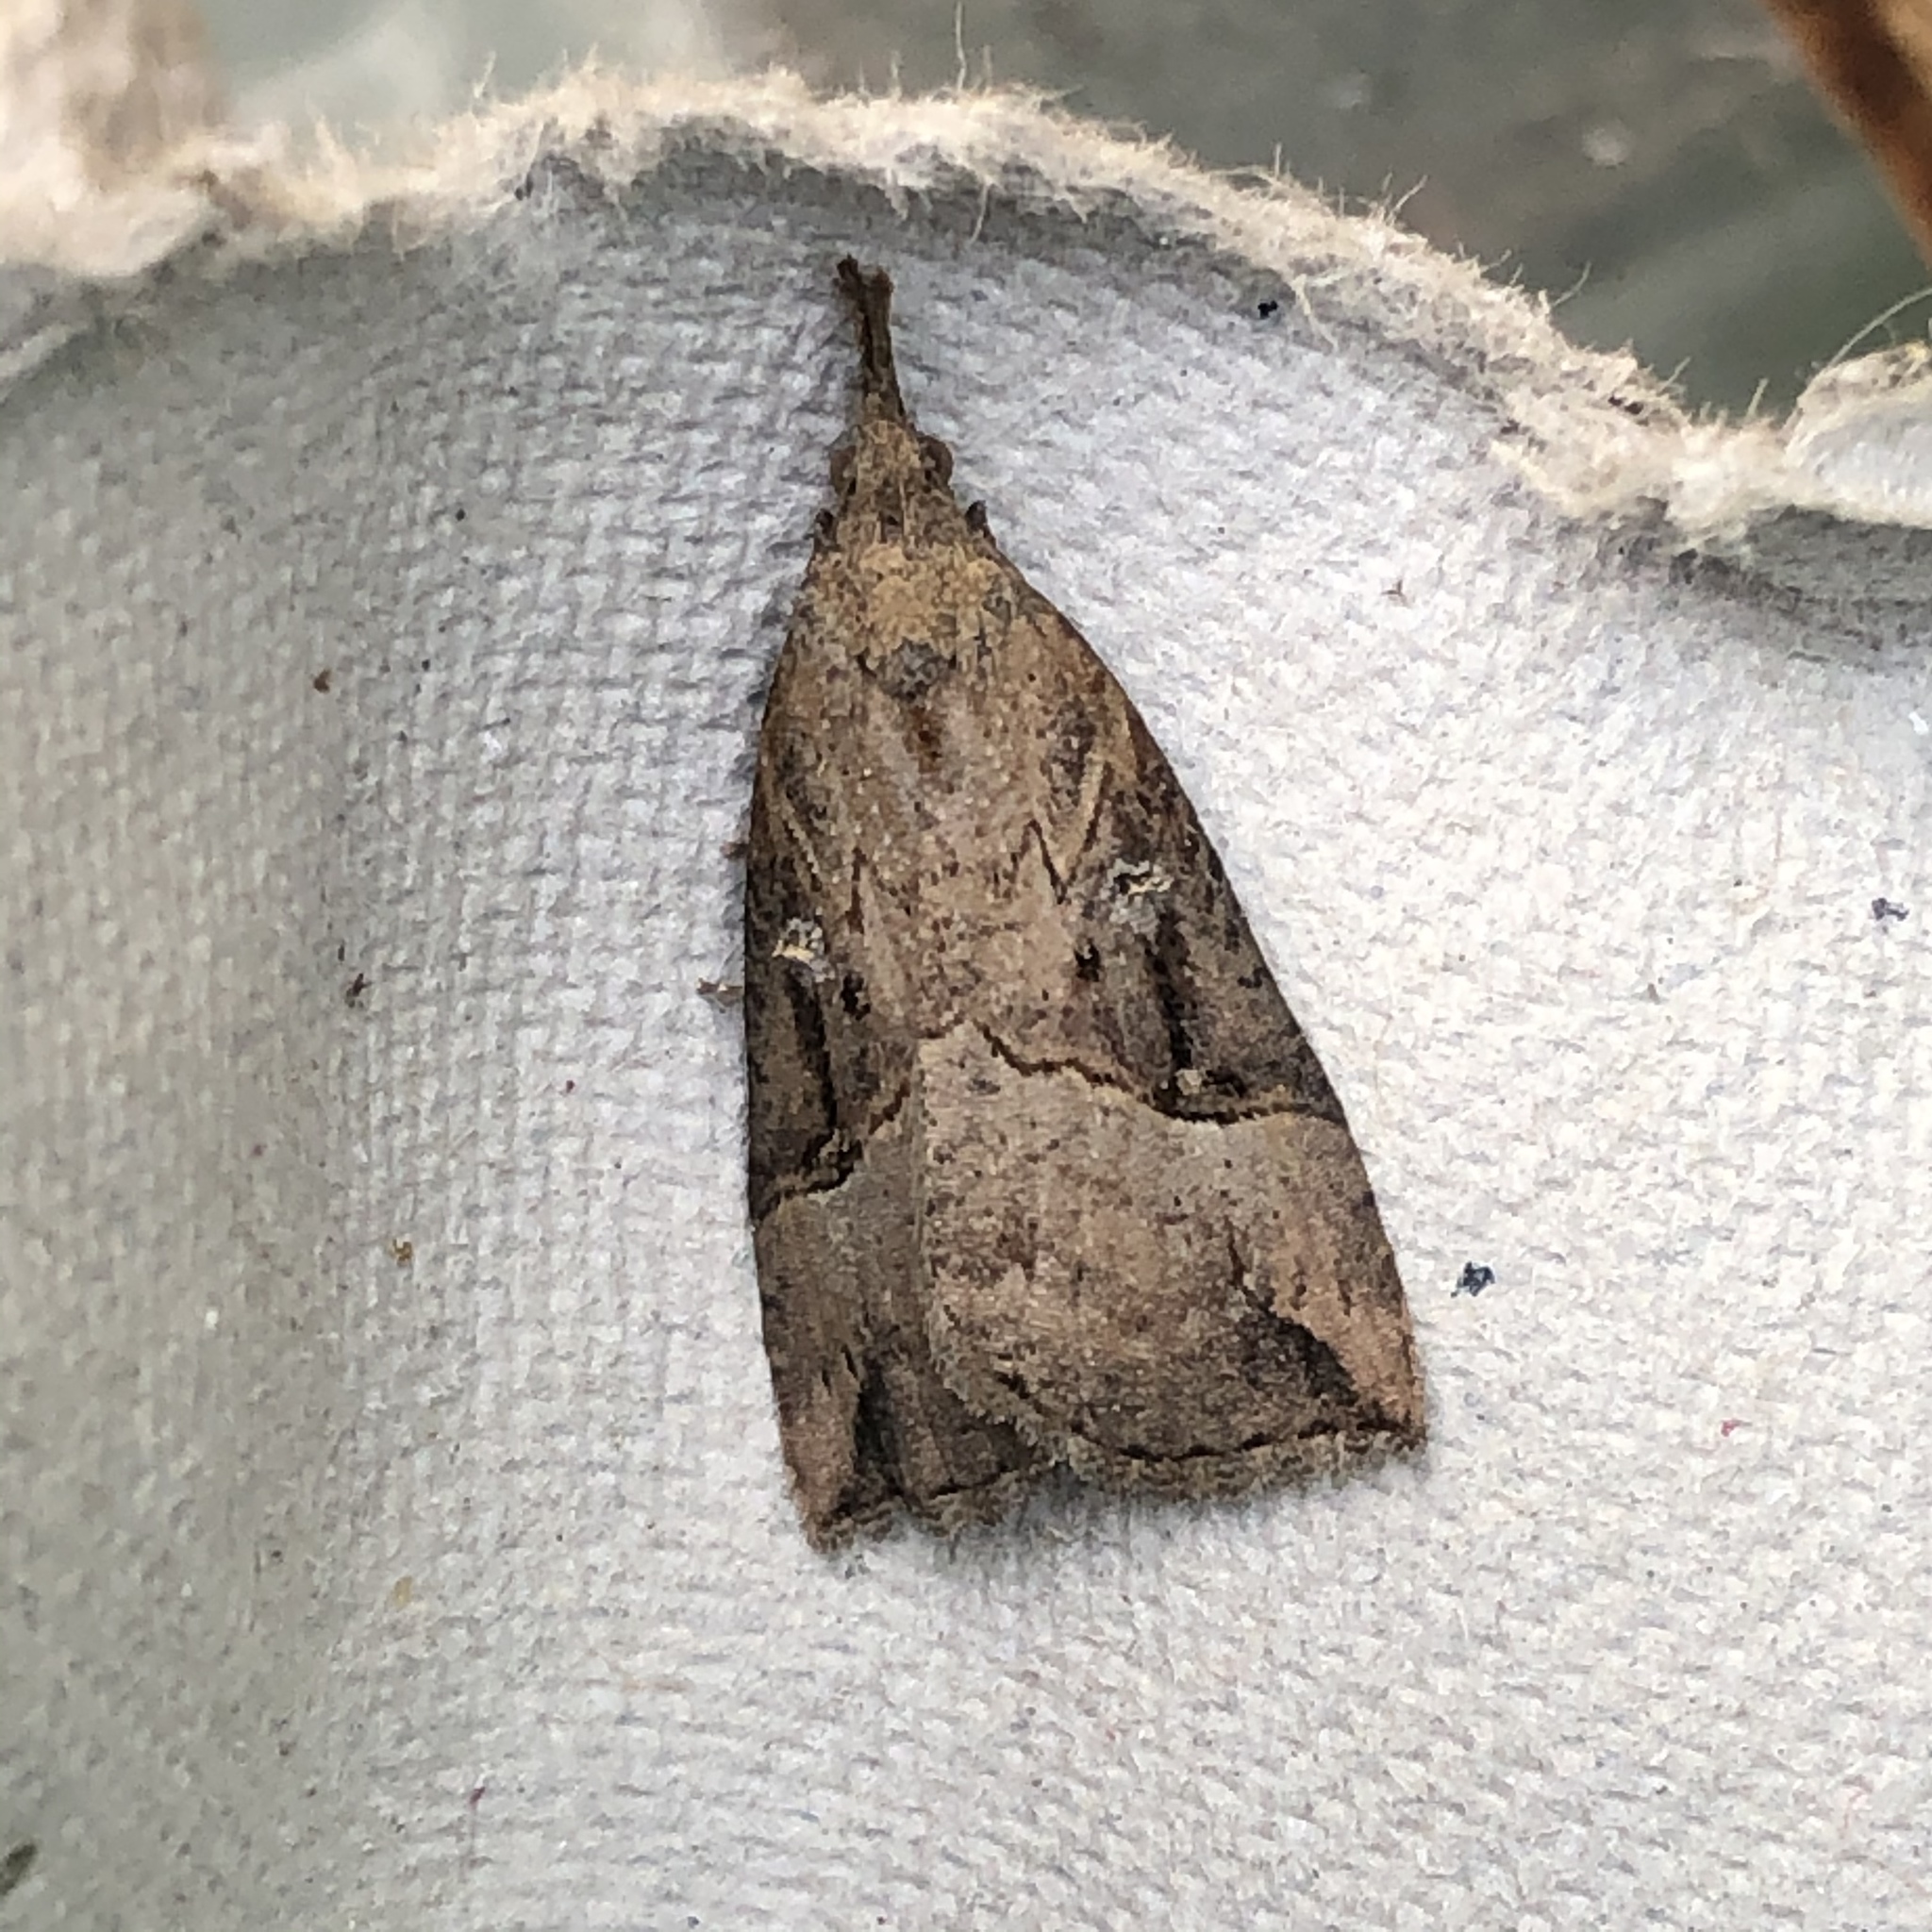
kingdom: Animalia
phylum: Arthropoda
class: Insecta
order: Lepidoptera
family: Erebidae
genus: Hypena
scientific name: Hypena rostralis
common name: Buttoned snout
